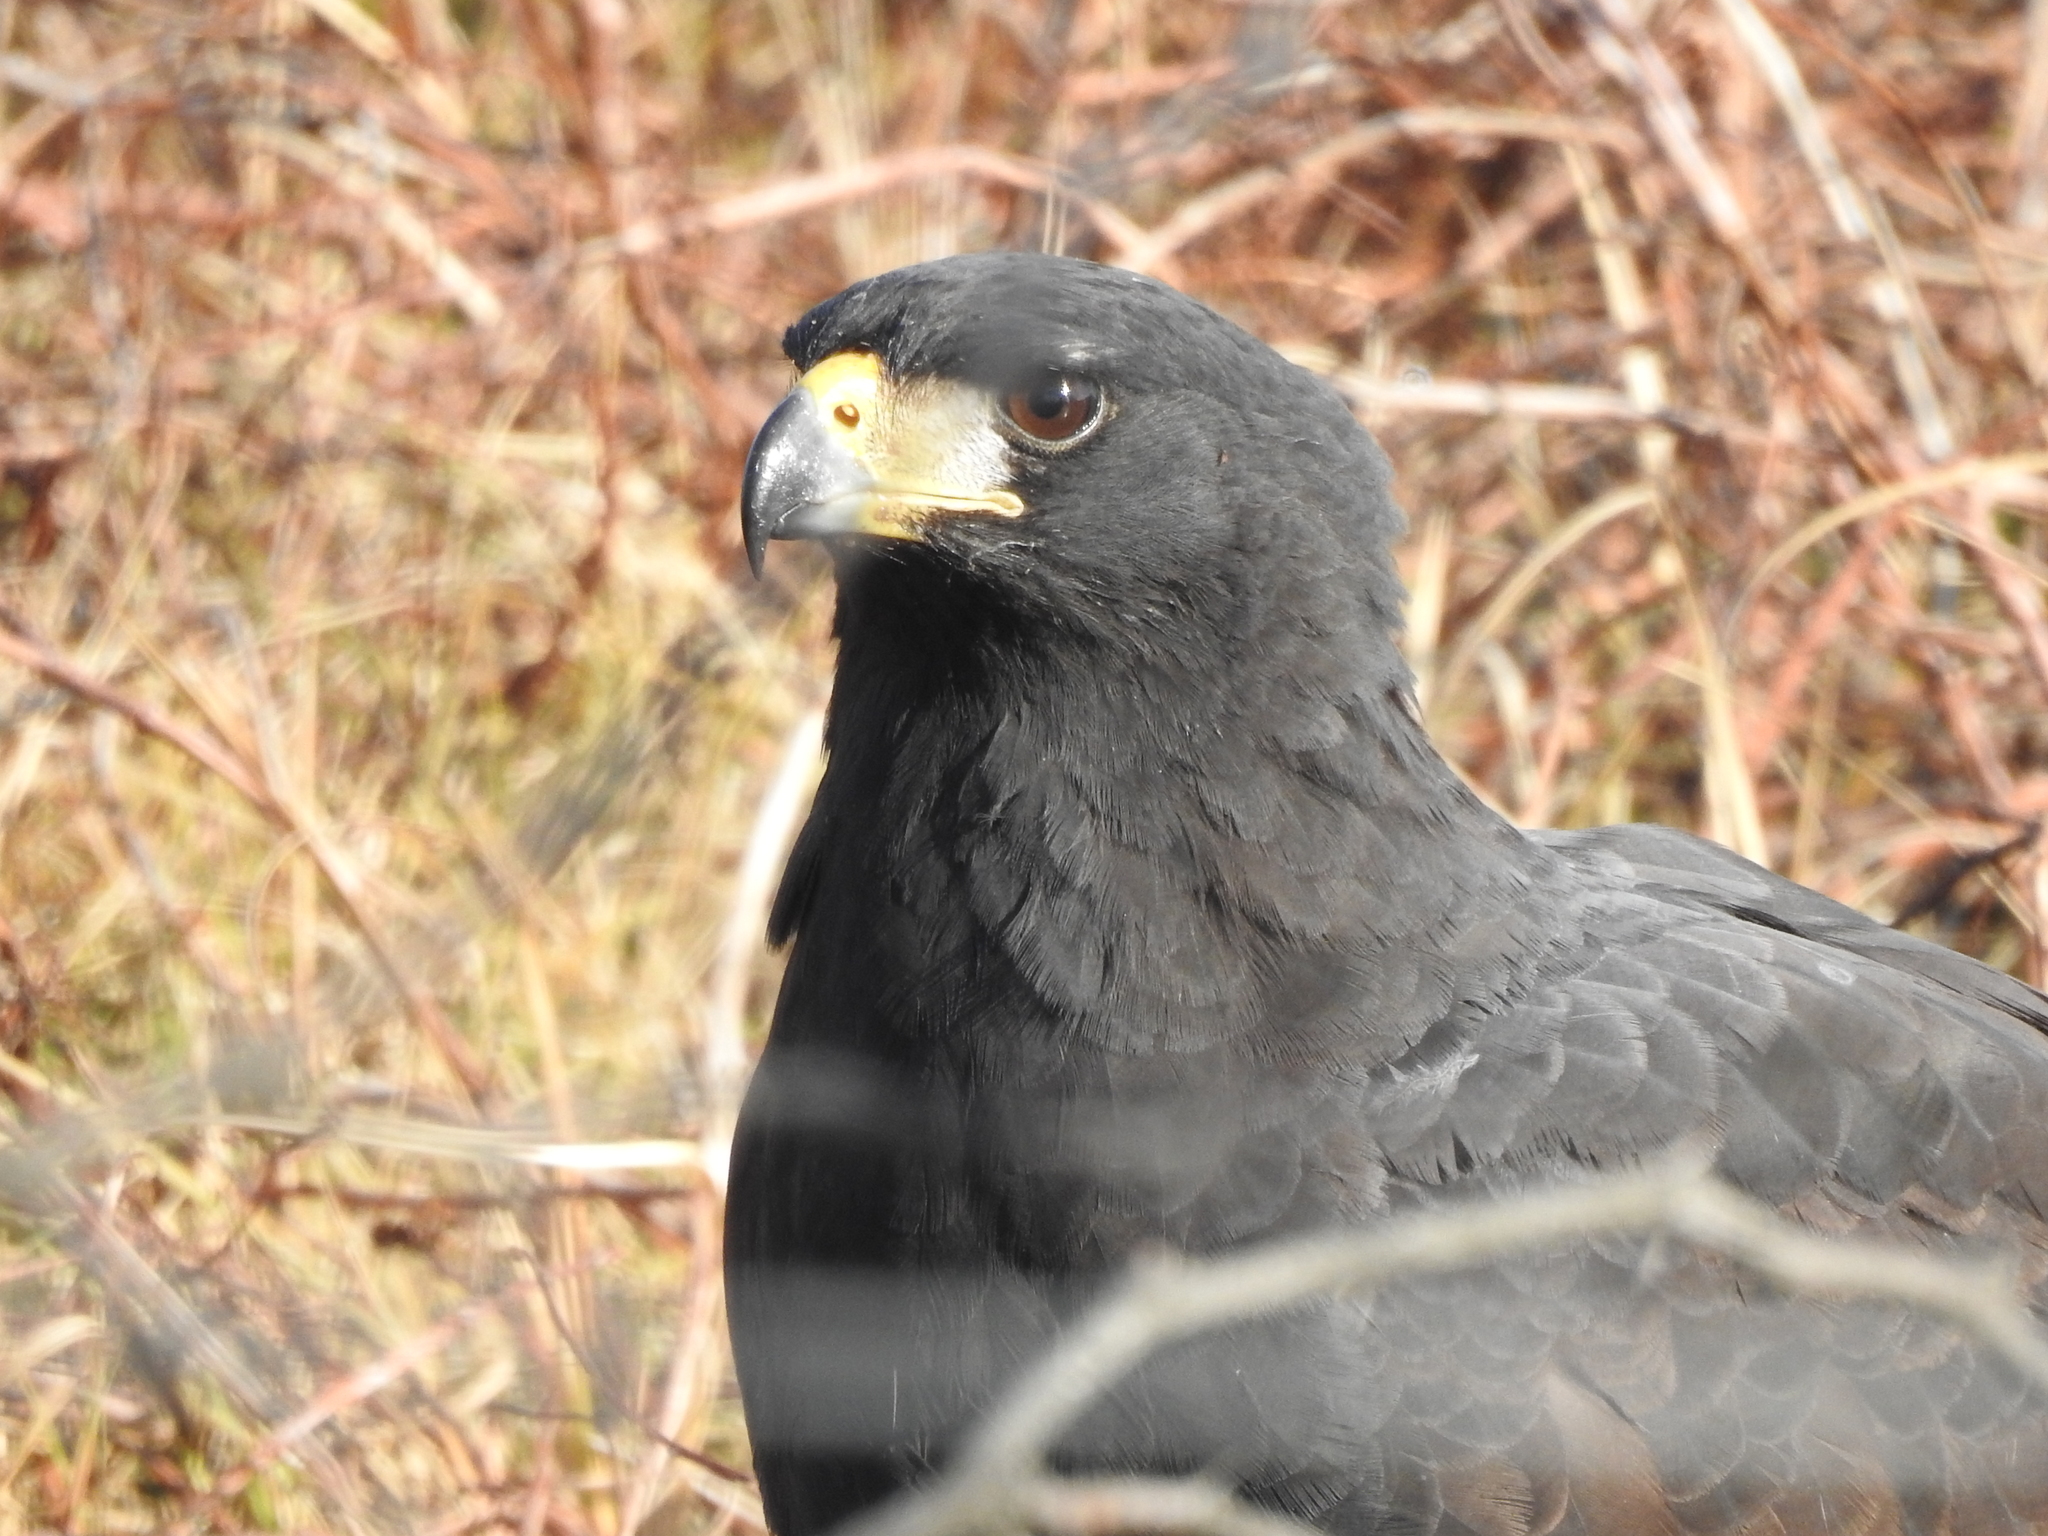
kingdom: Animalia
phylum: Chordata
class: Aves
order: Accipitriformes
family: Accipitridae
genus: Buteogallus
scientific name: Buteogallus urubitinga
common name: Great black hawk
